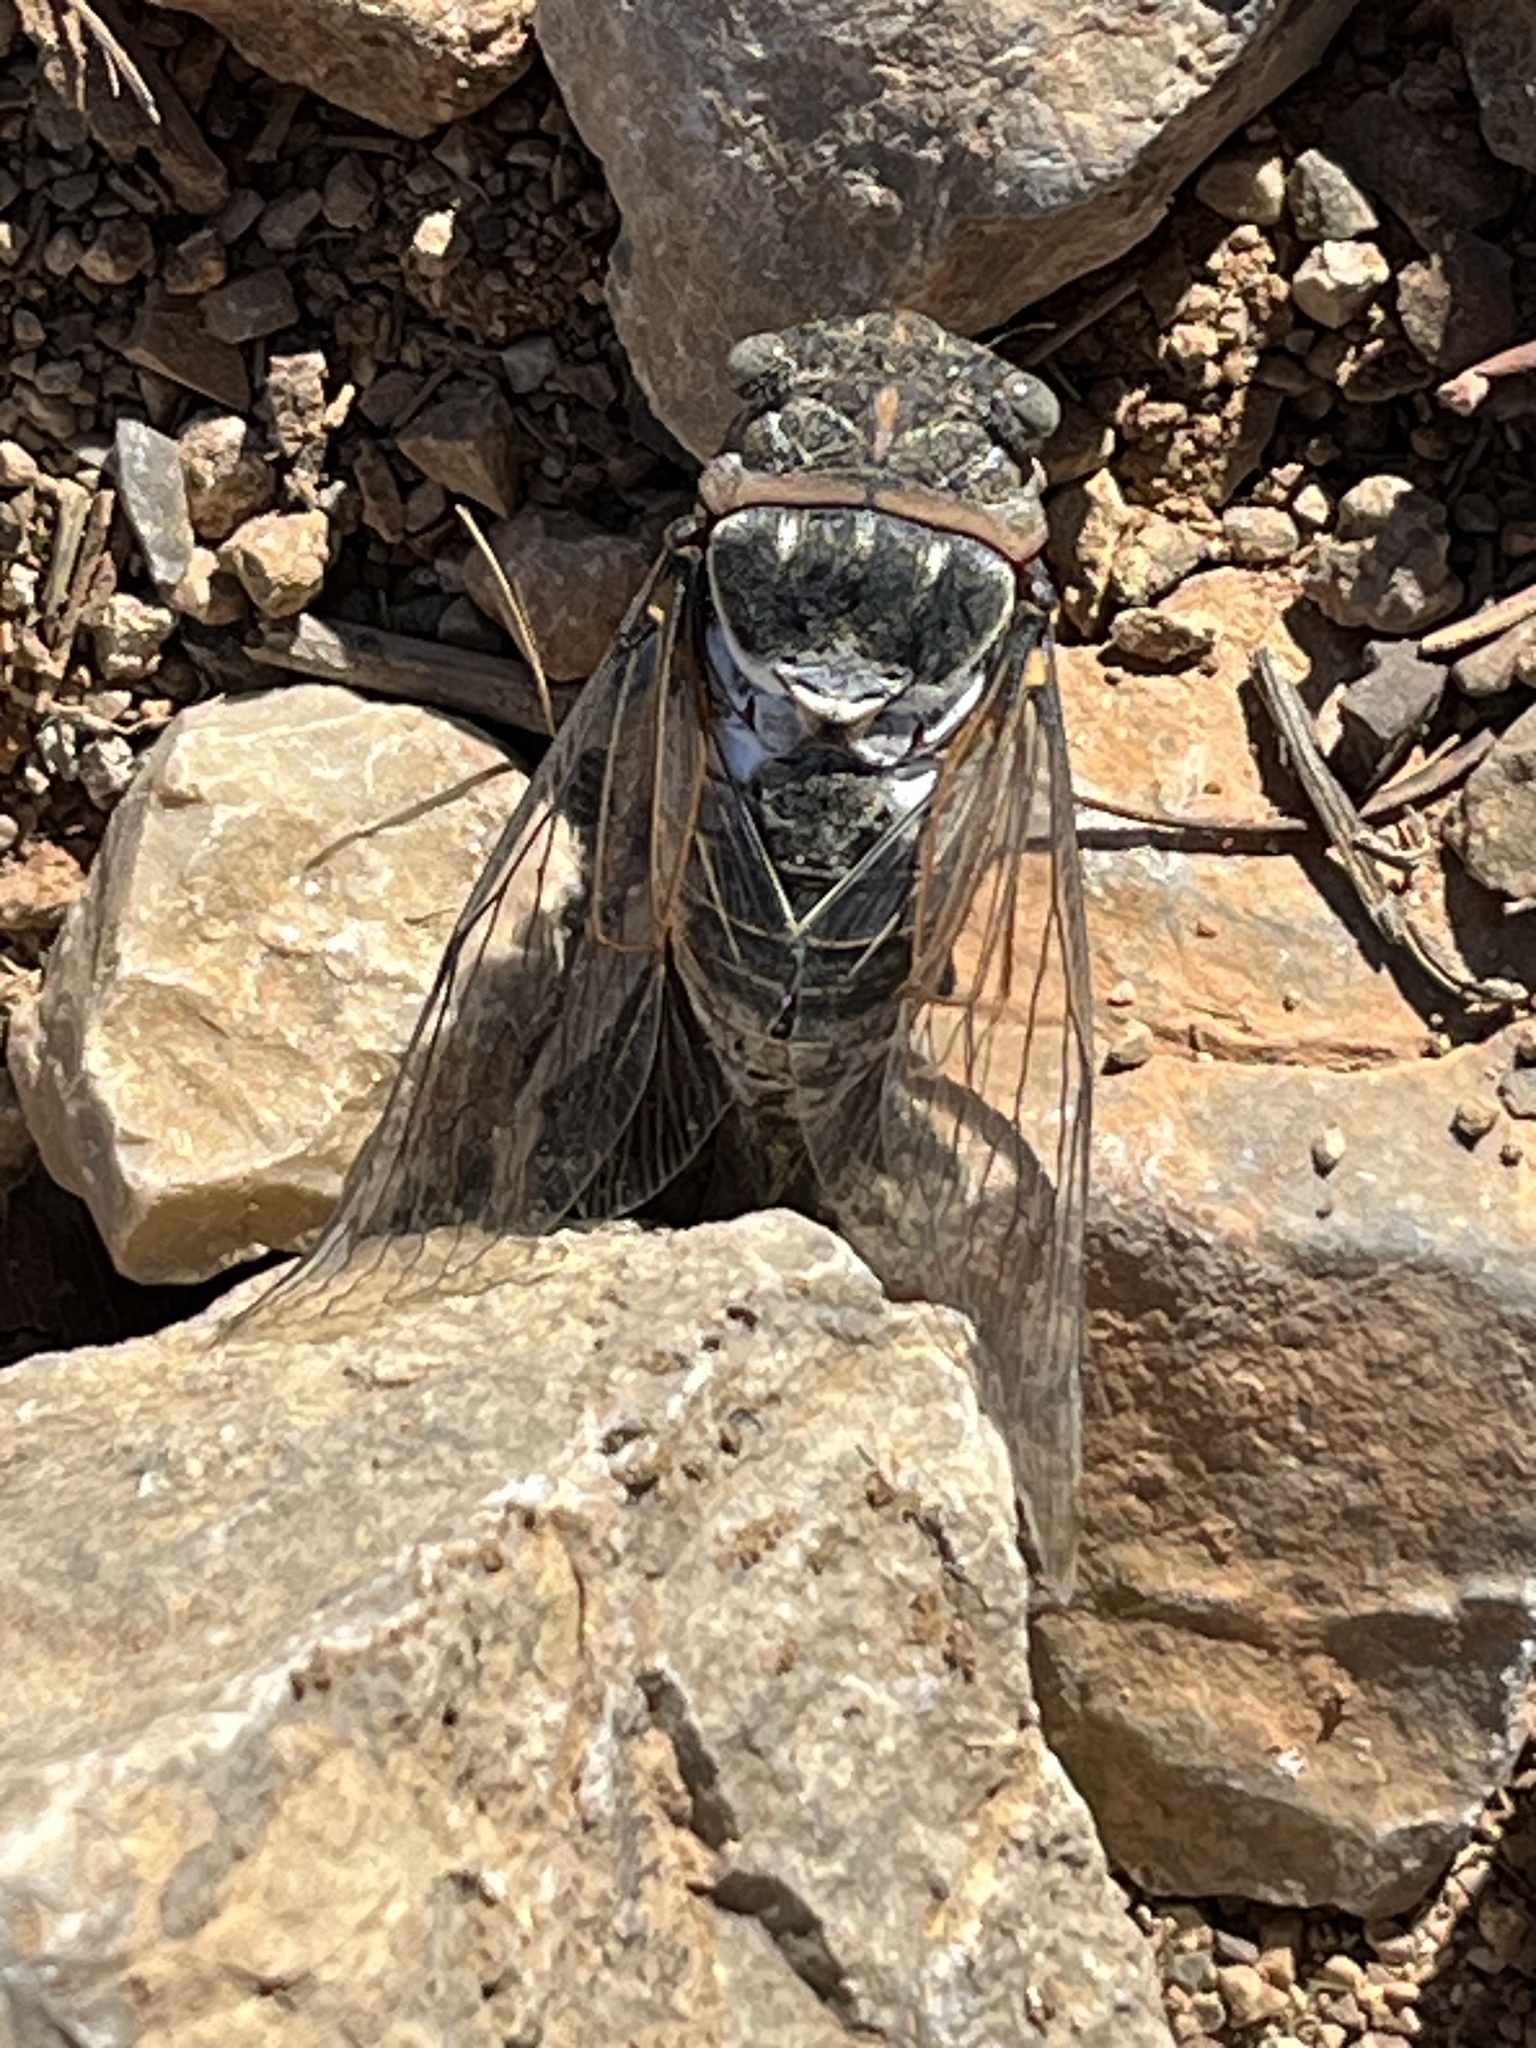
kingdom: Animalia
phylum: Arthropoda
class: Insecta
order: Hemiptera
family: Cicadidae
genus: Lyristes
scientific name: Lyristes plebejus
